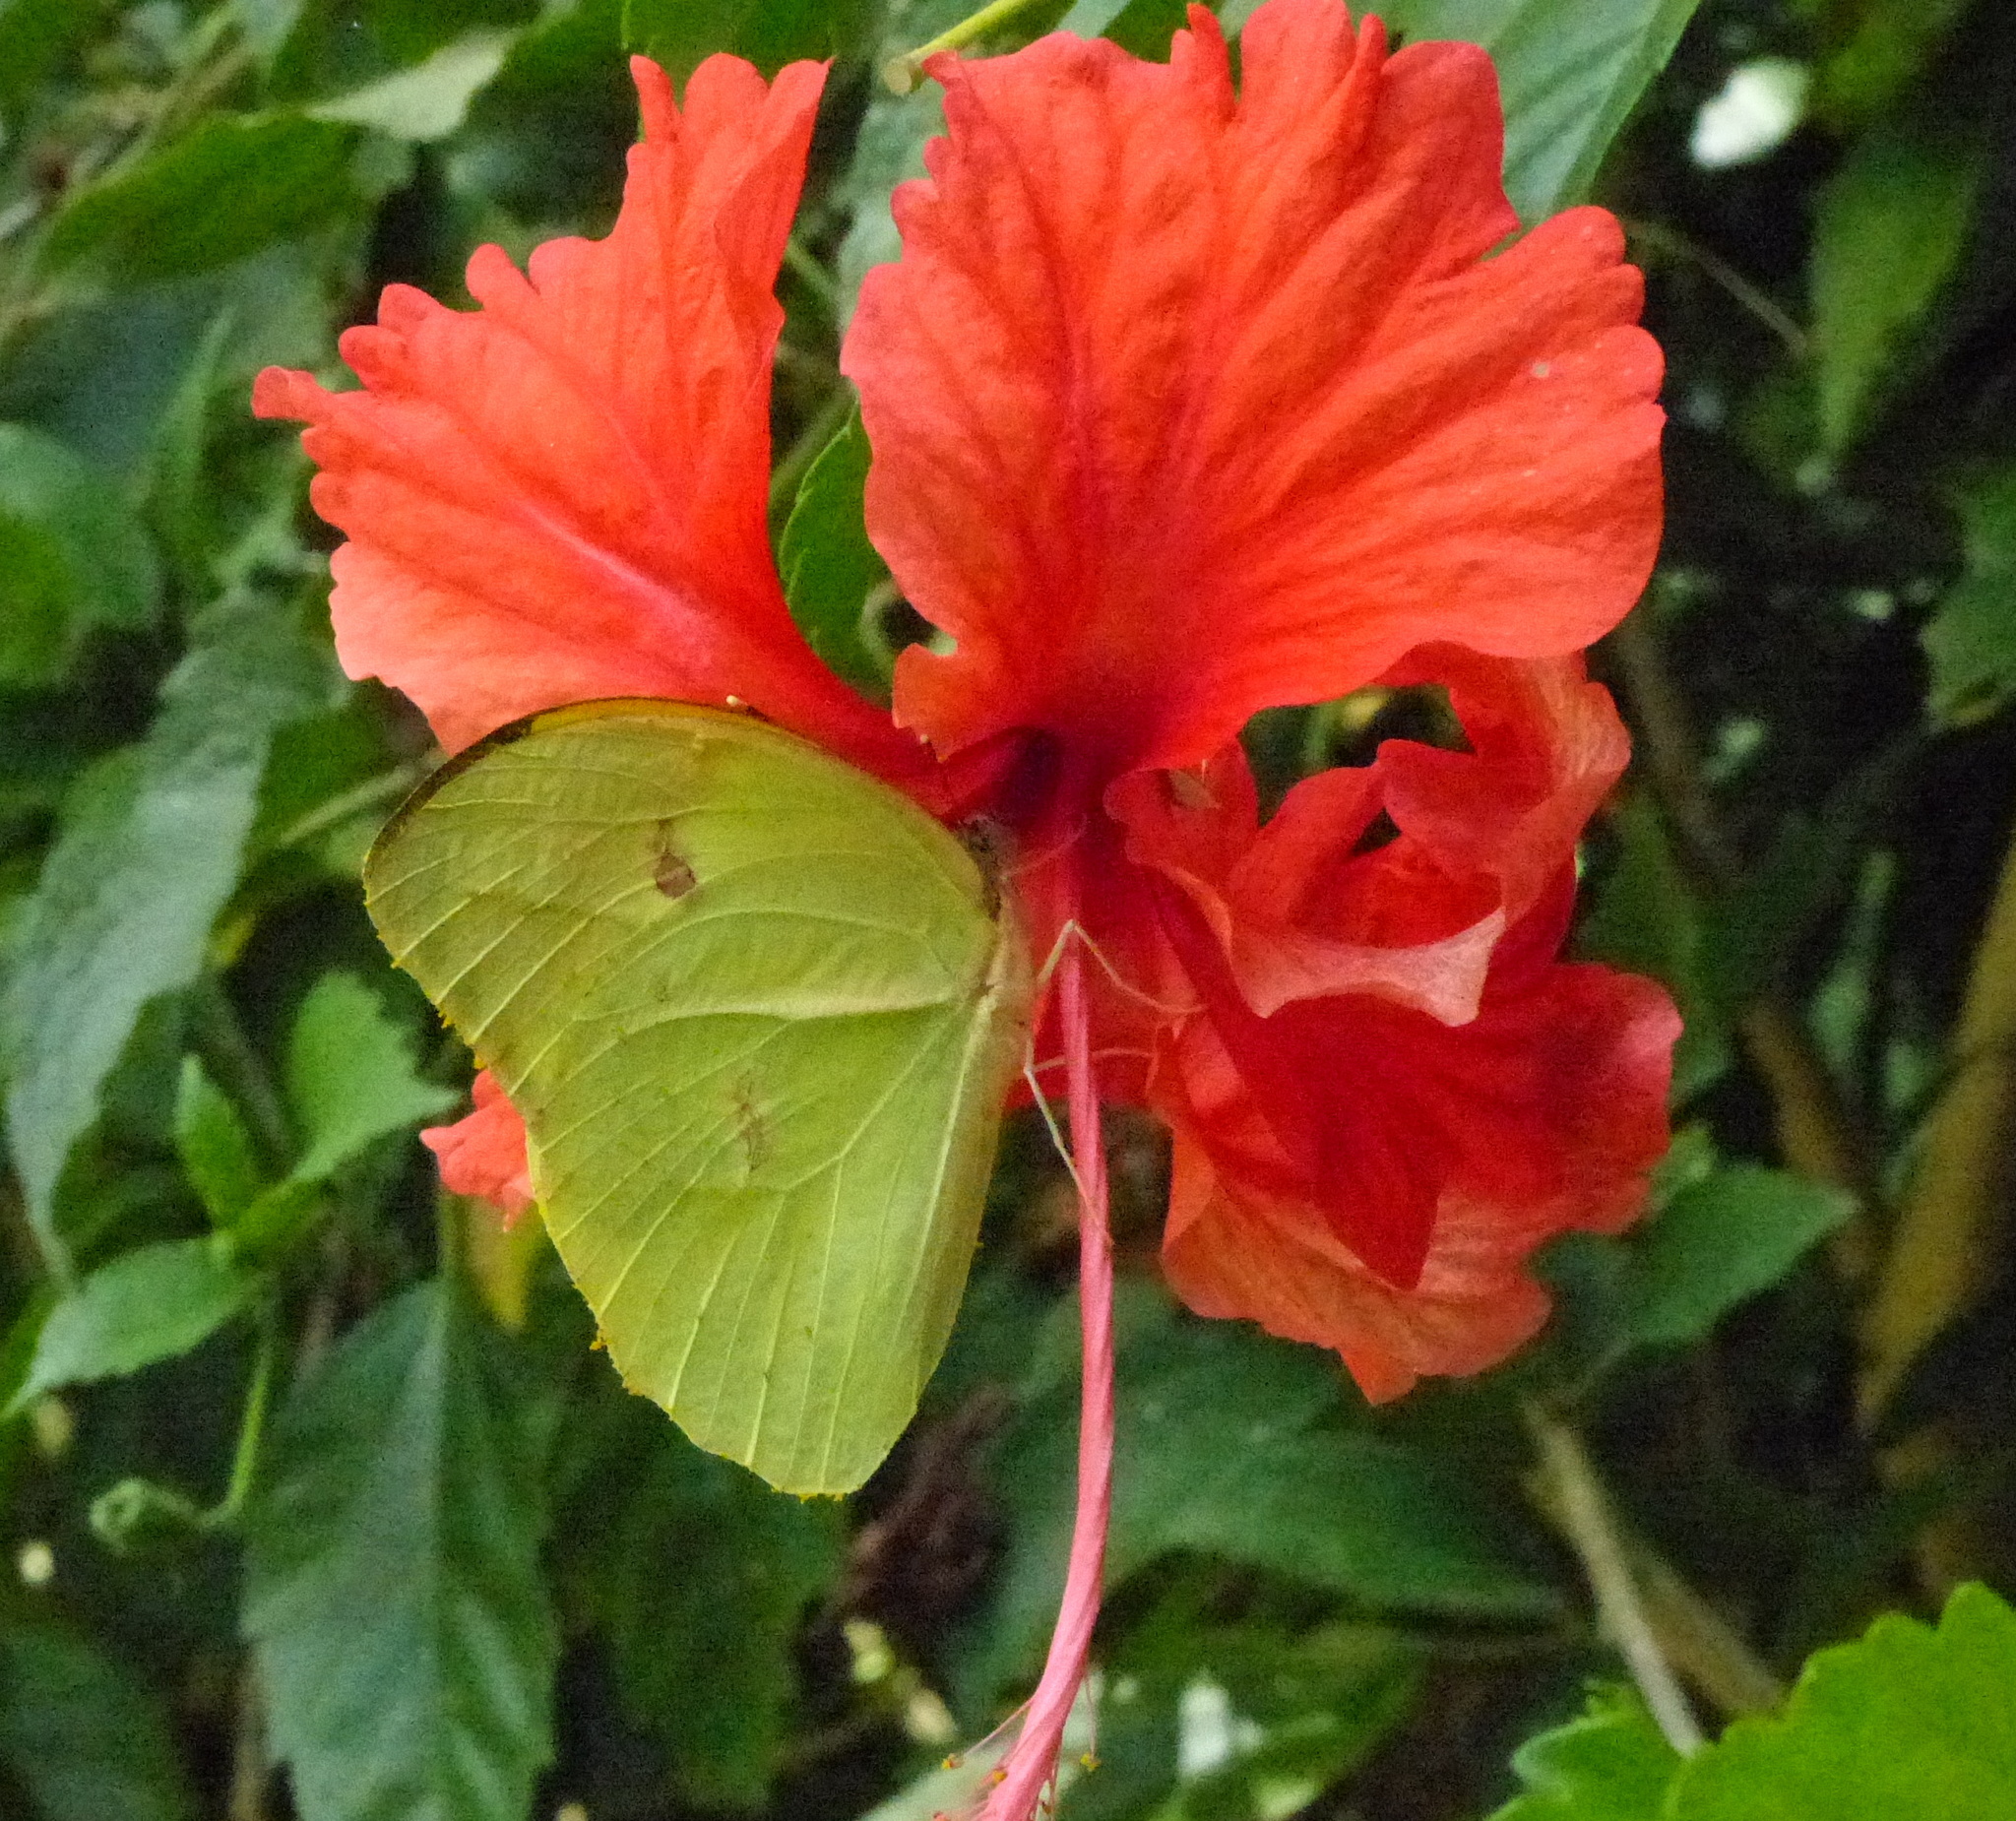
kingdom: Animalia
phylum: Arthropoda
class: Insecta
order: Lepidoptera
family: Pieridae
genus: Anteos
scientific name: Anteos menippe
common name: Orangetip angled-sulphur
